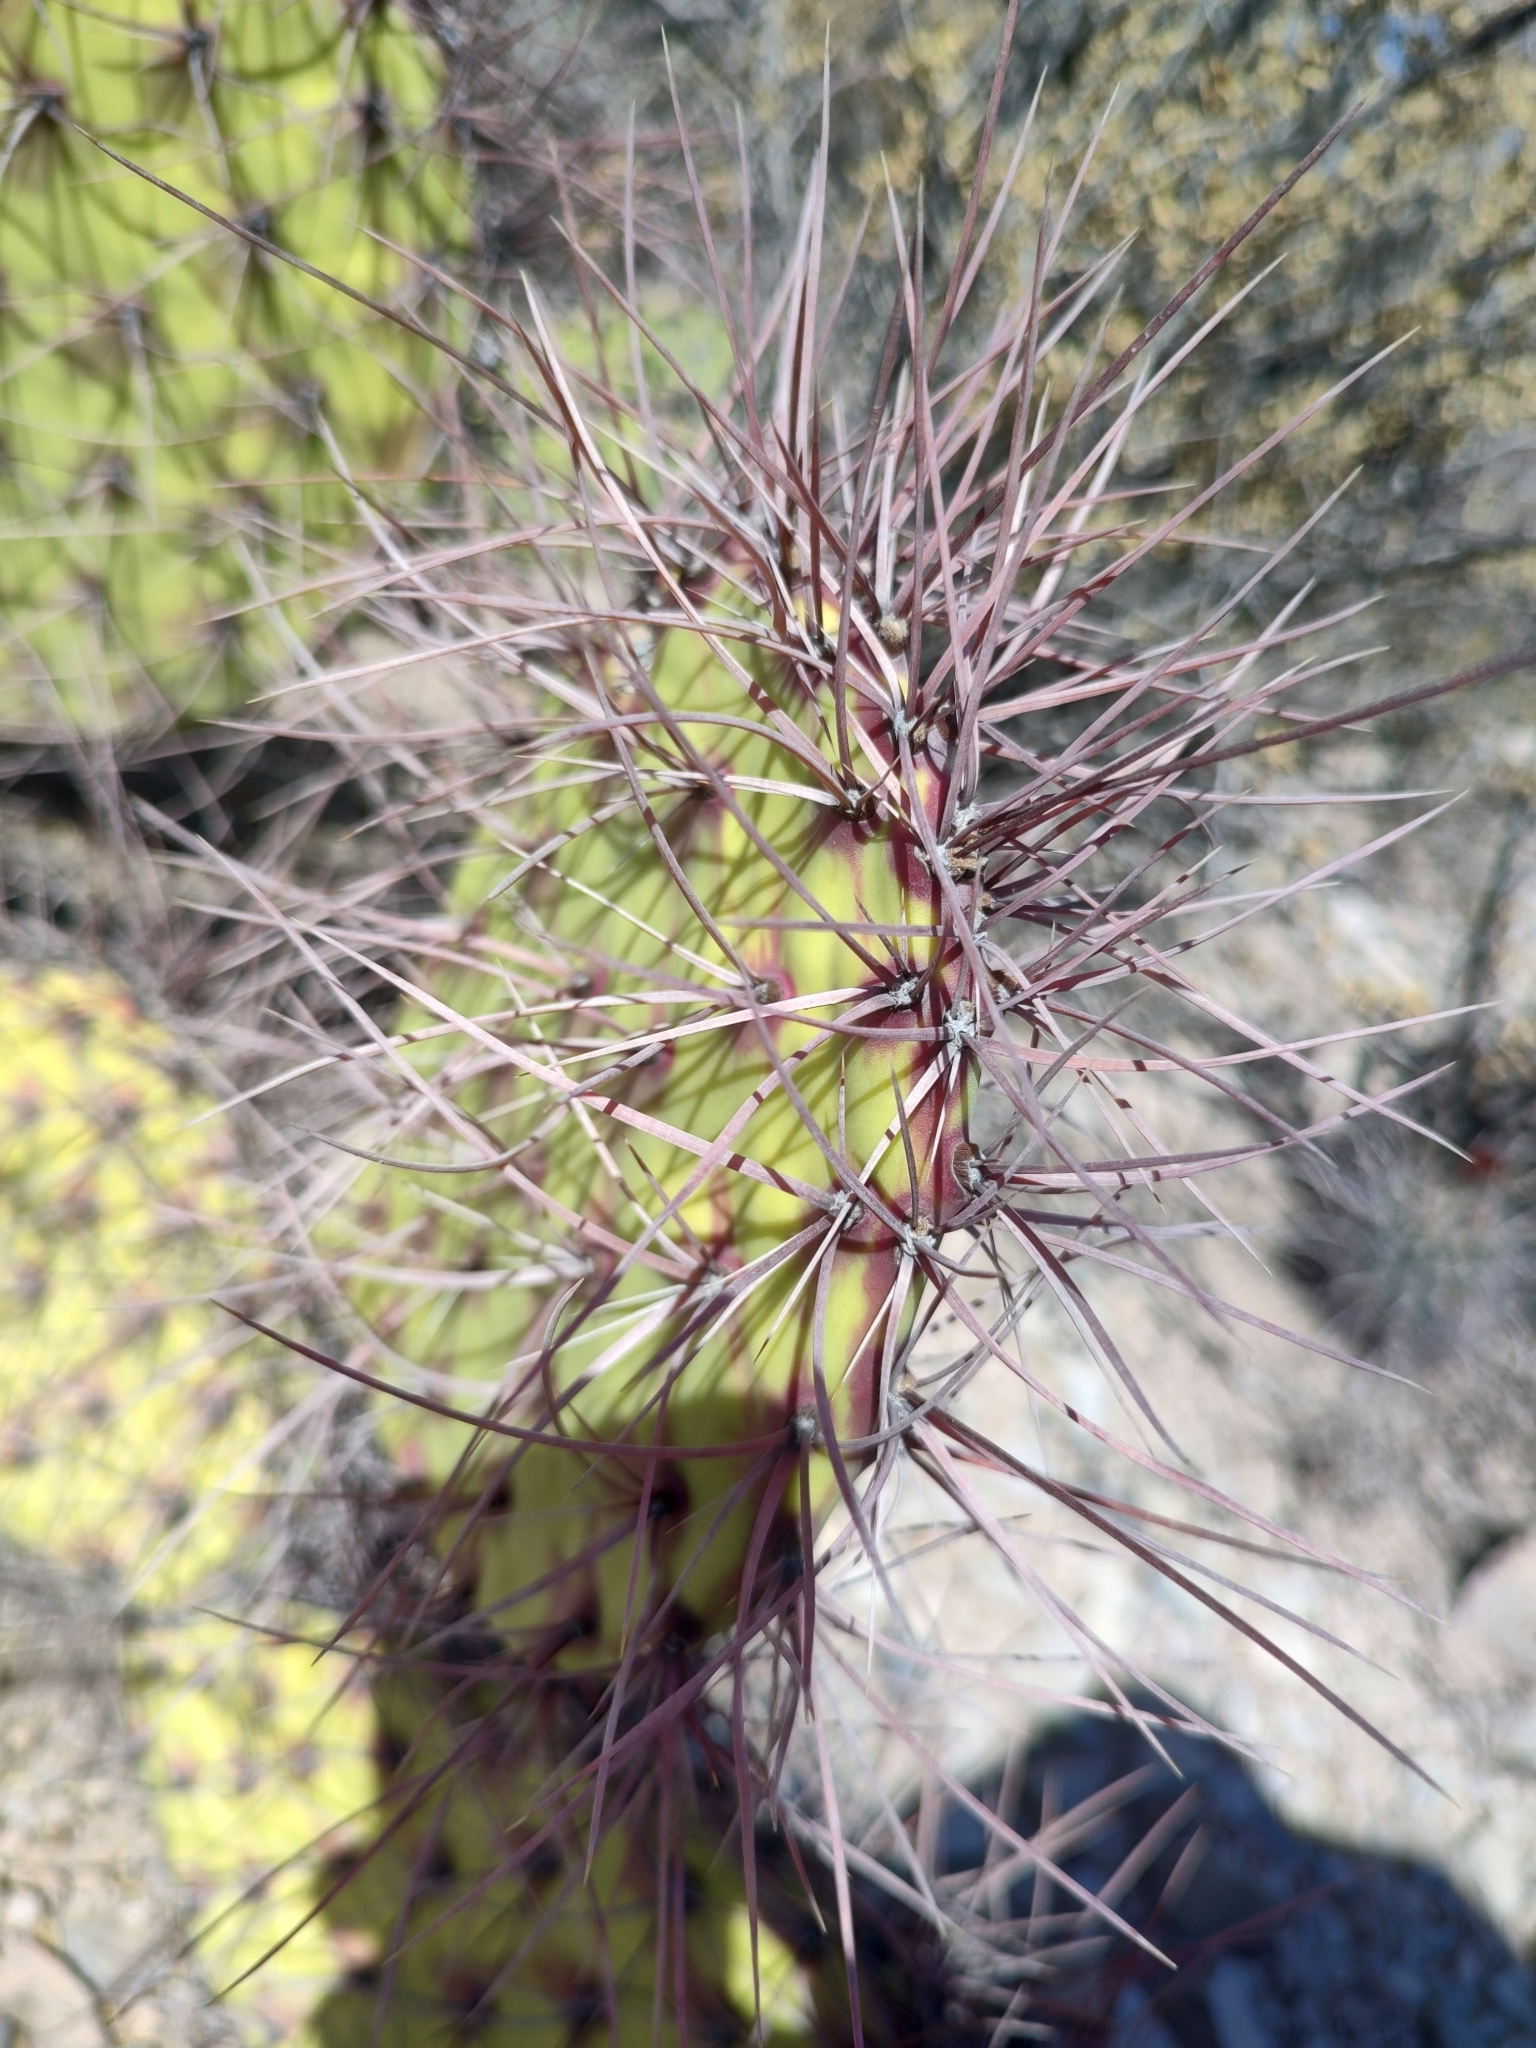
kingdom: Plantae
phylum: Tracheophyta
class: Magnoliopsida
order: Caryophyllales
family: Cactaceae
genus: Opuntia
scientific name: Opuntia stenopetala
